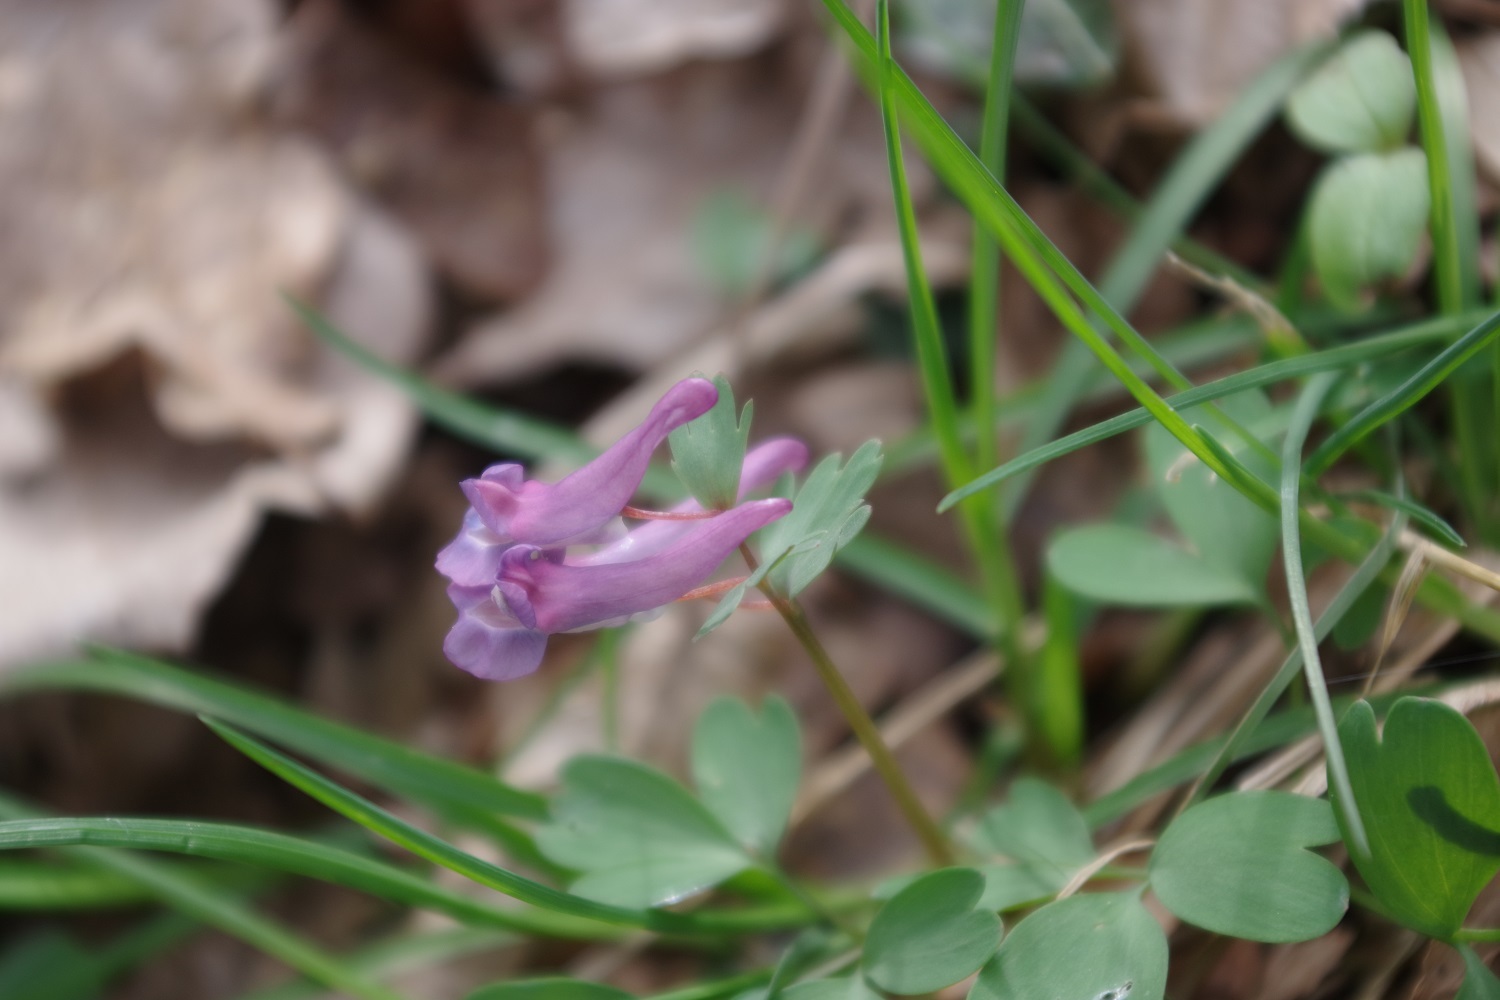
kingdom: Plantae
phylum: Tracheophyta
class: Magnoliopsida
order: Ranunculales
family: Papaveraceae
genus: Corydalis
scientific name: Corydalis solida
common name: Bird-in-a-bush
